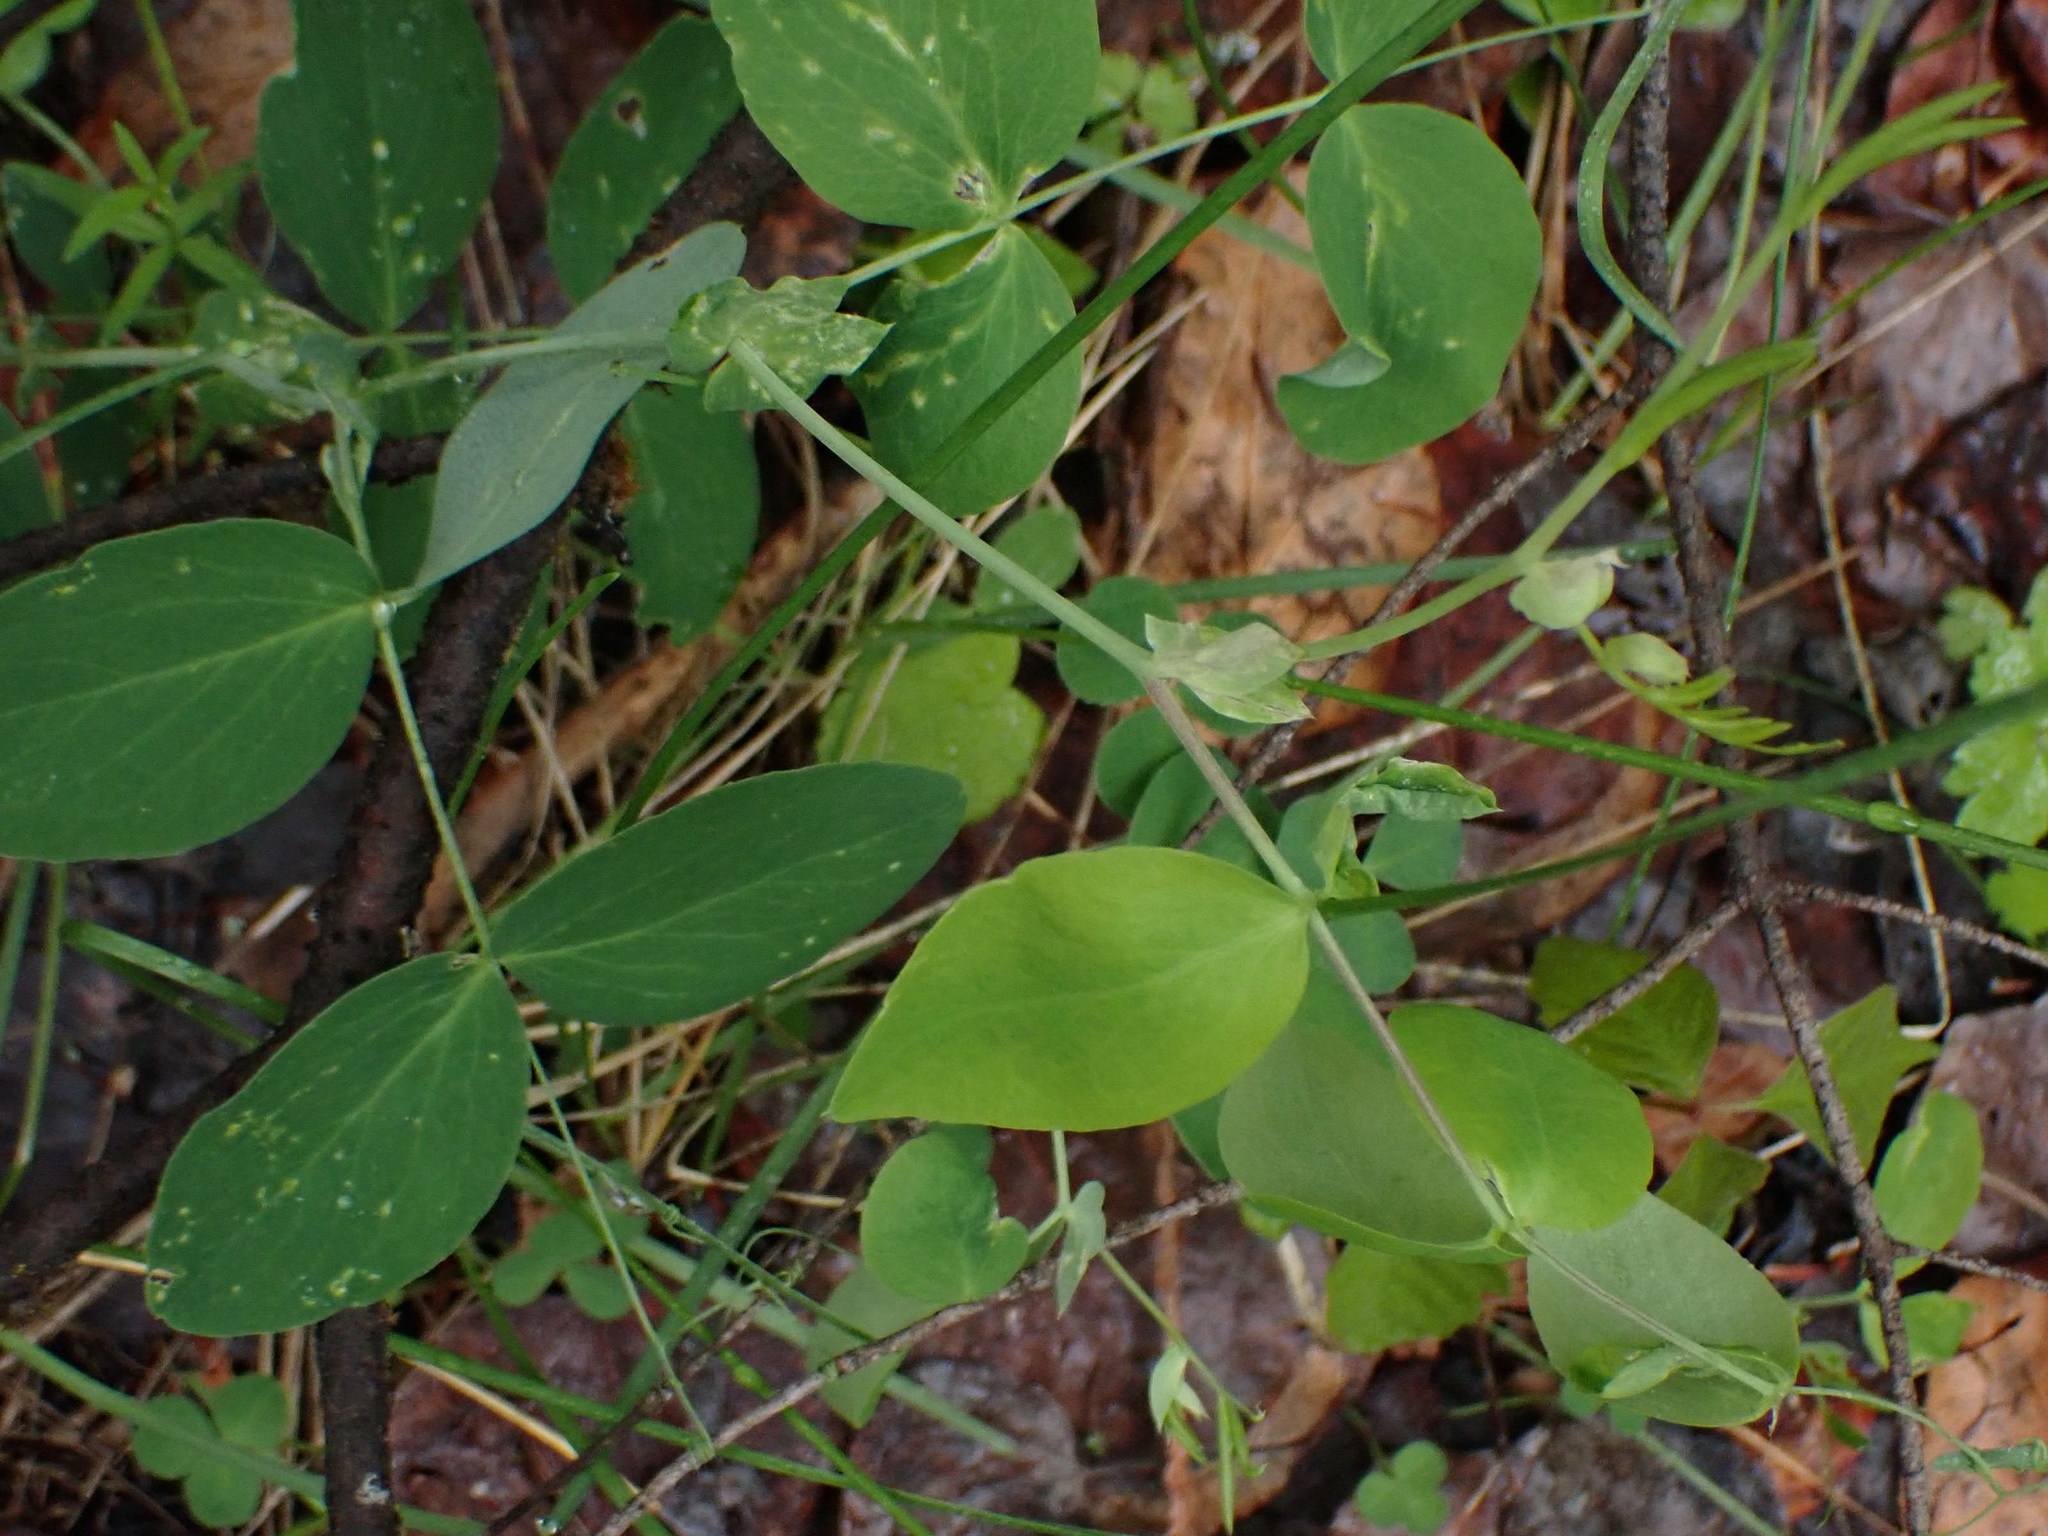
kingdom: Plantae
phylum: Tracheophyta
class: Magnoliopsida
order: Fabales
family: Fabaceae
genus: Lathyrus
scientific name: Lathyrus ochroleucus
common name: Pale vetchling
